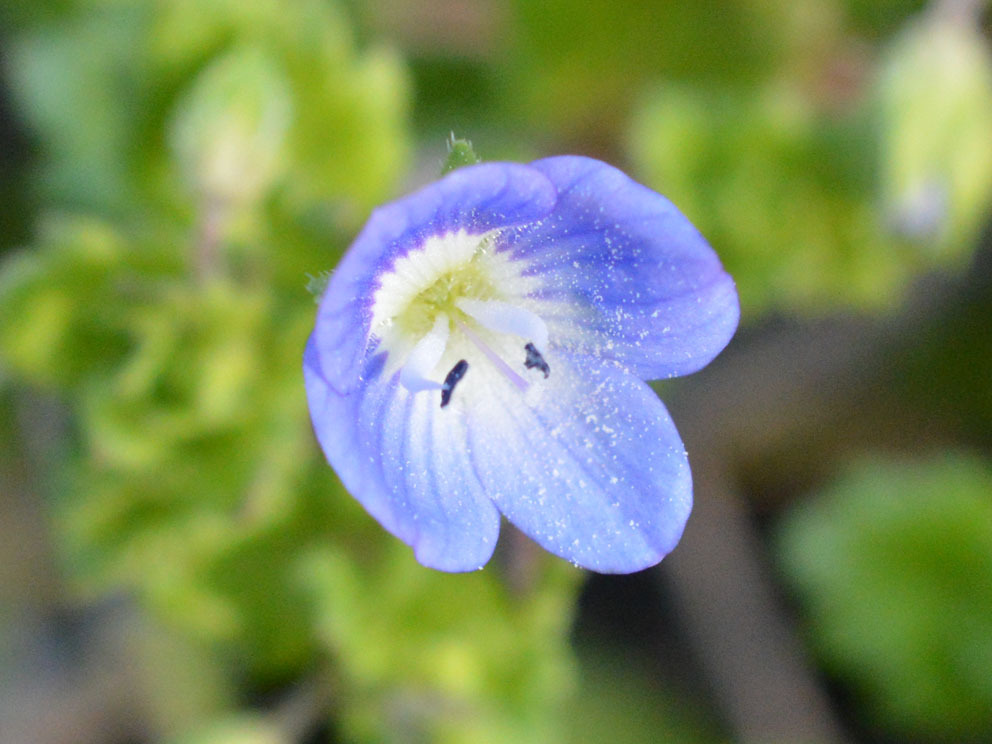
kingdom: Plantae
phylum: Tracheophyta
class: Magnoliopsida
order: Lamiales
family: Plantaginaceae
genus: Veronica
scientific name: Veronica persica
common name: Common field-speedwell
